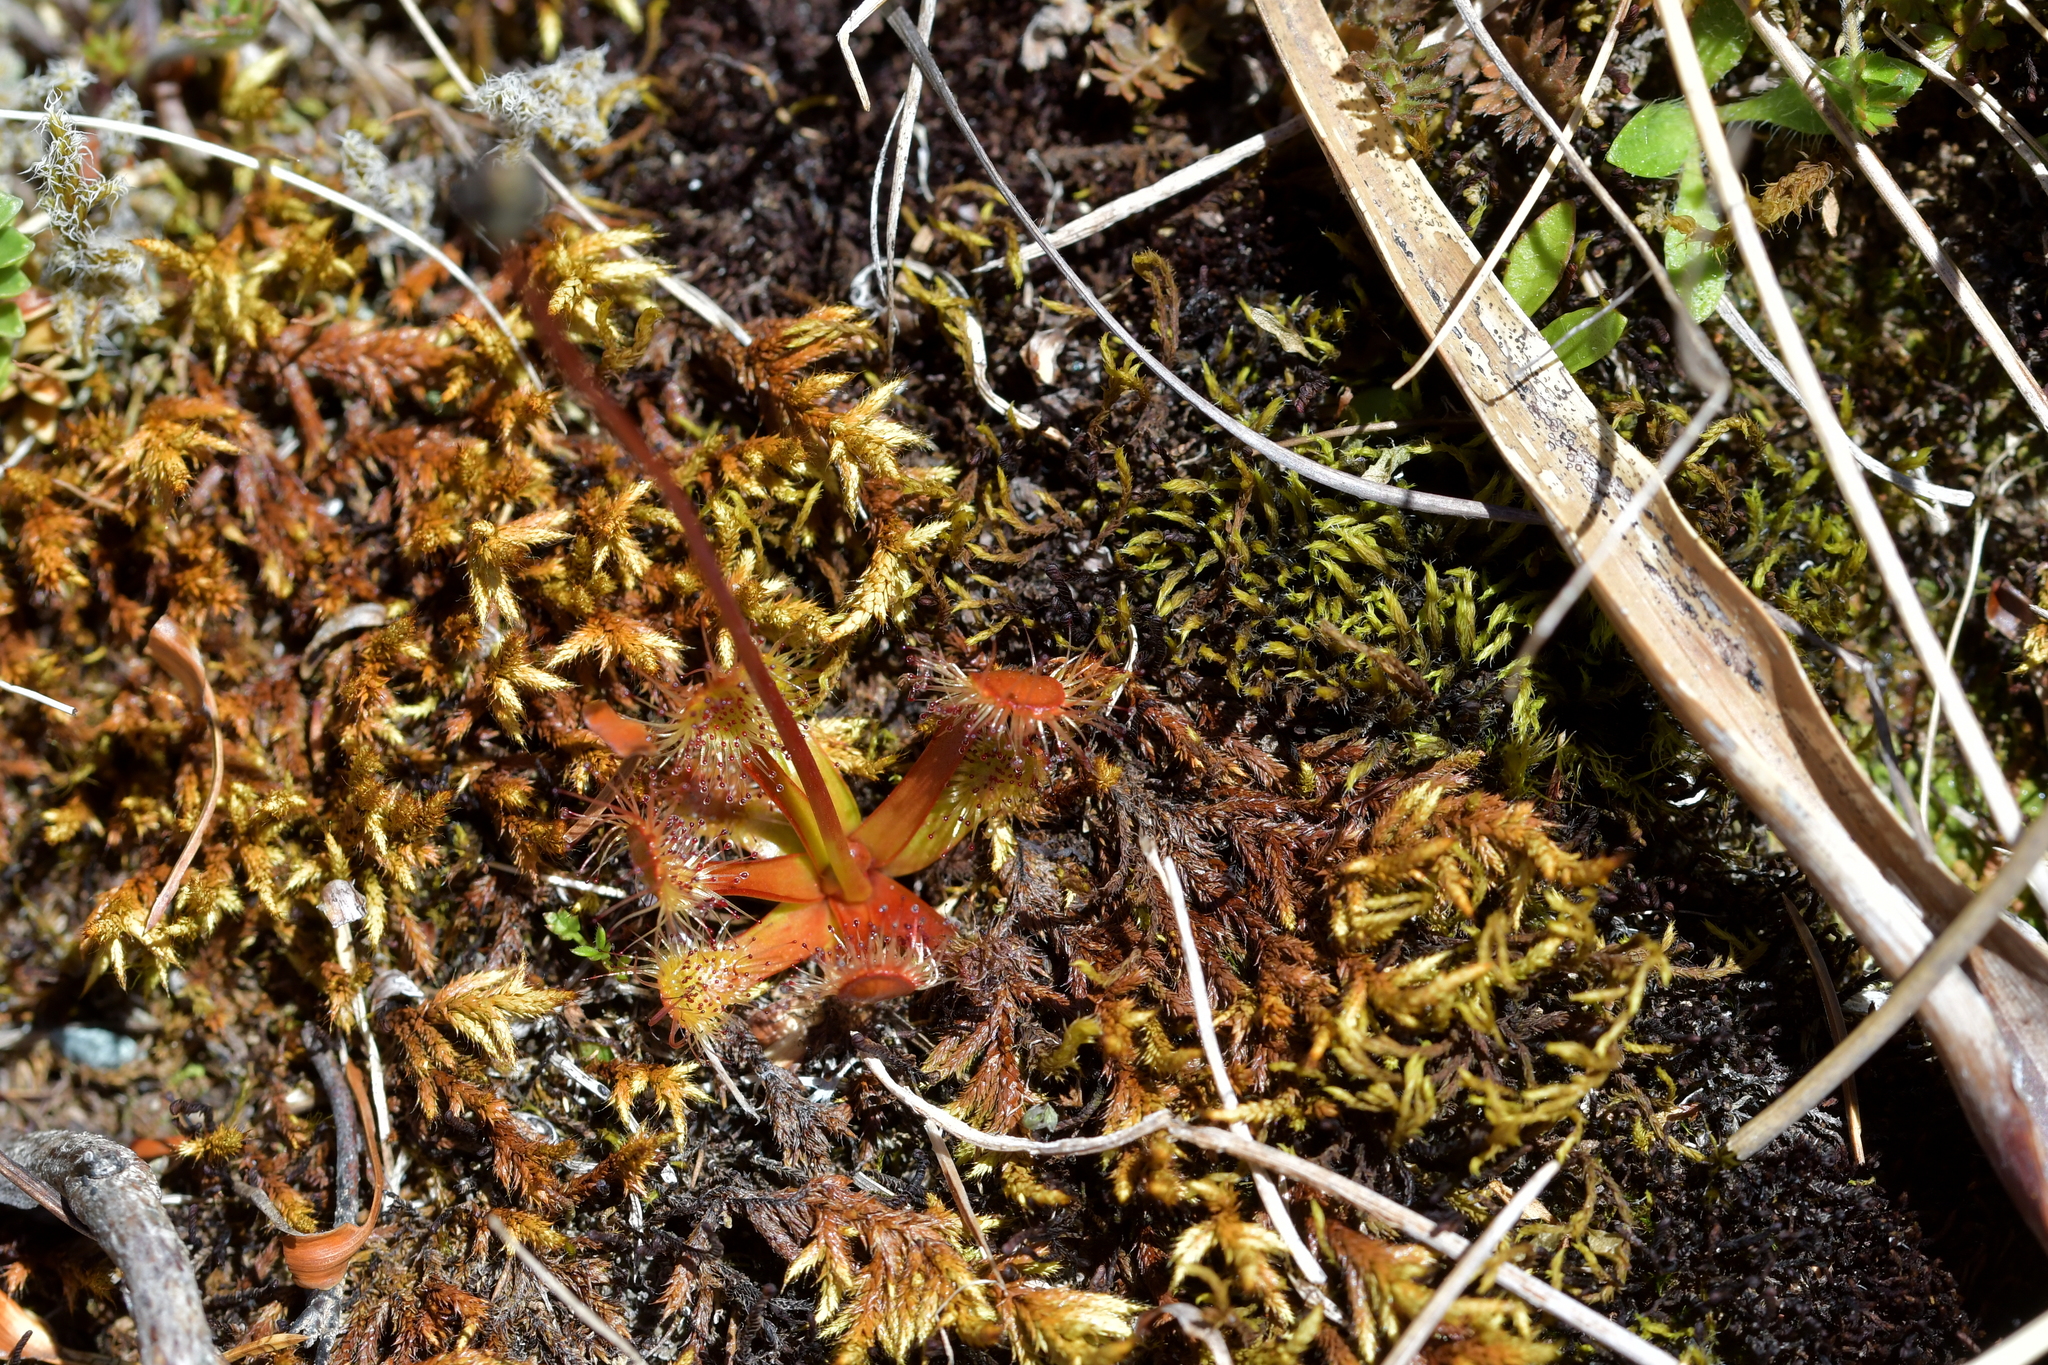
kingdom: Plantae
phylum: Tracheophyta
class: Magnoliopsida
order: Caryophyllales
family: Droseraceae
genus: Drosera
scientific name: Drosera stenopetala
